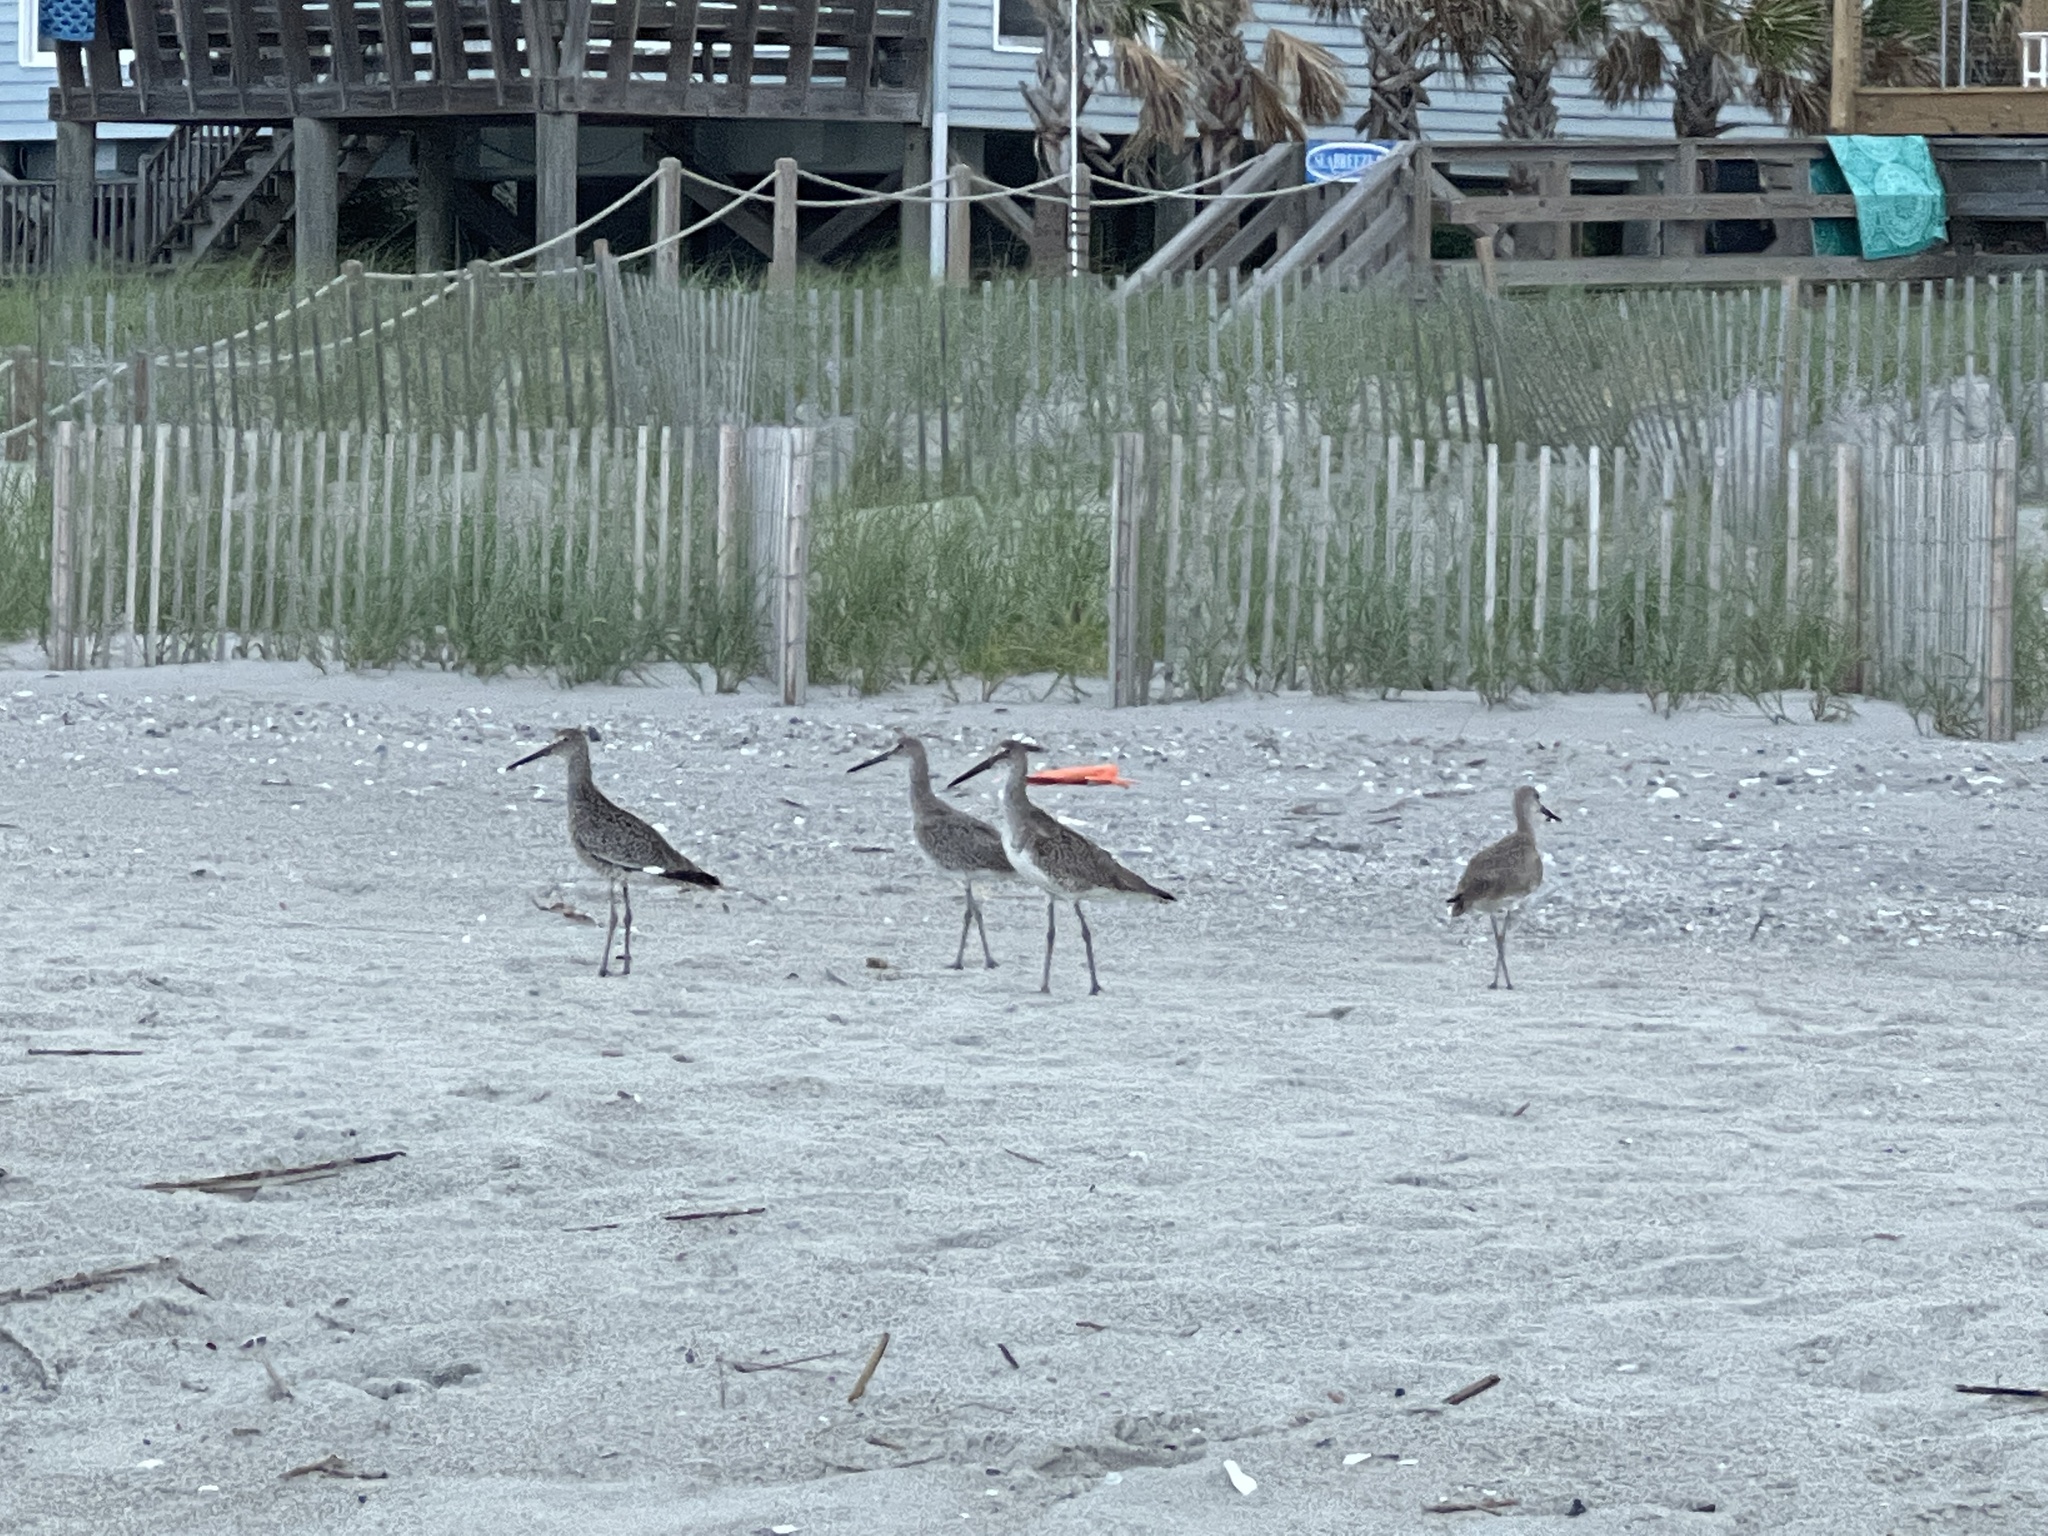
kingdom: Animalia
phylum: Chordata
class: Aves
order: Charadriiformes
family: Scolopacidae
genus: Tringa
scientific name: Tringa semipalmata
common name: Willet
